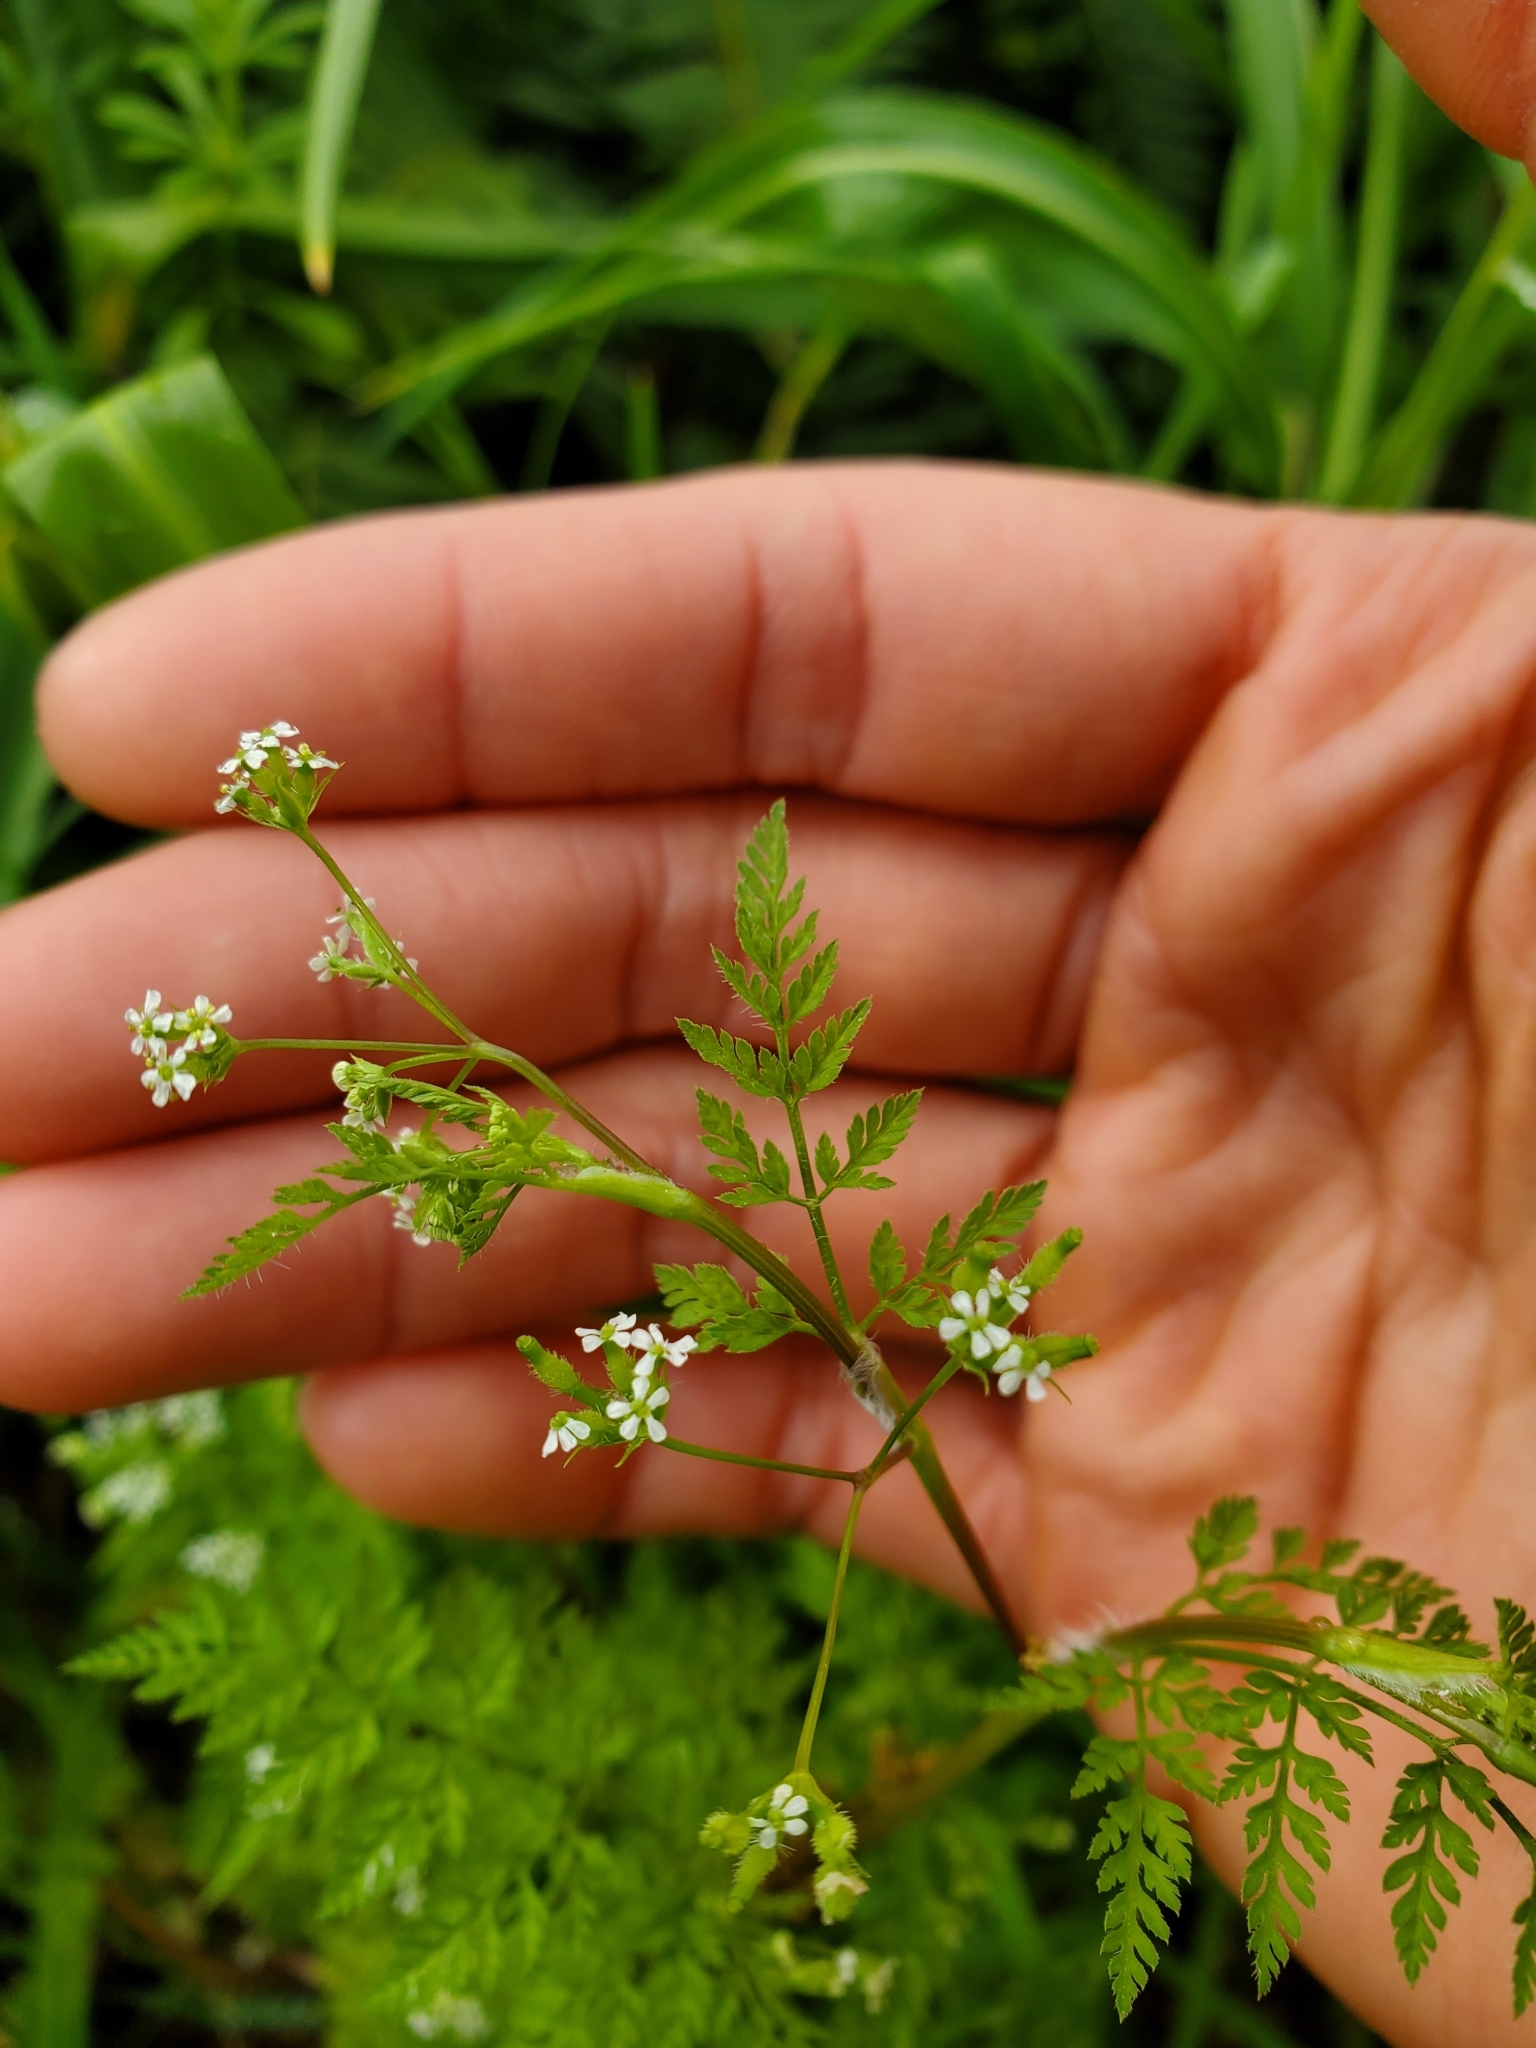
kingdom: Plantae
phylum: Tracheophyta
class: Magnoliopsida
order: Apiales
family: Apiaceae
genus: Anthriscus
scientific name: Anthriscus caucalis
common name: Bur chervil
